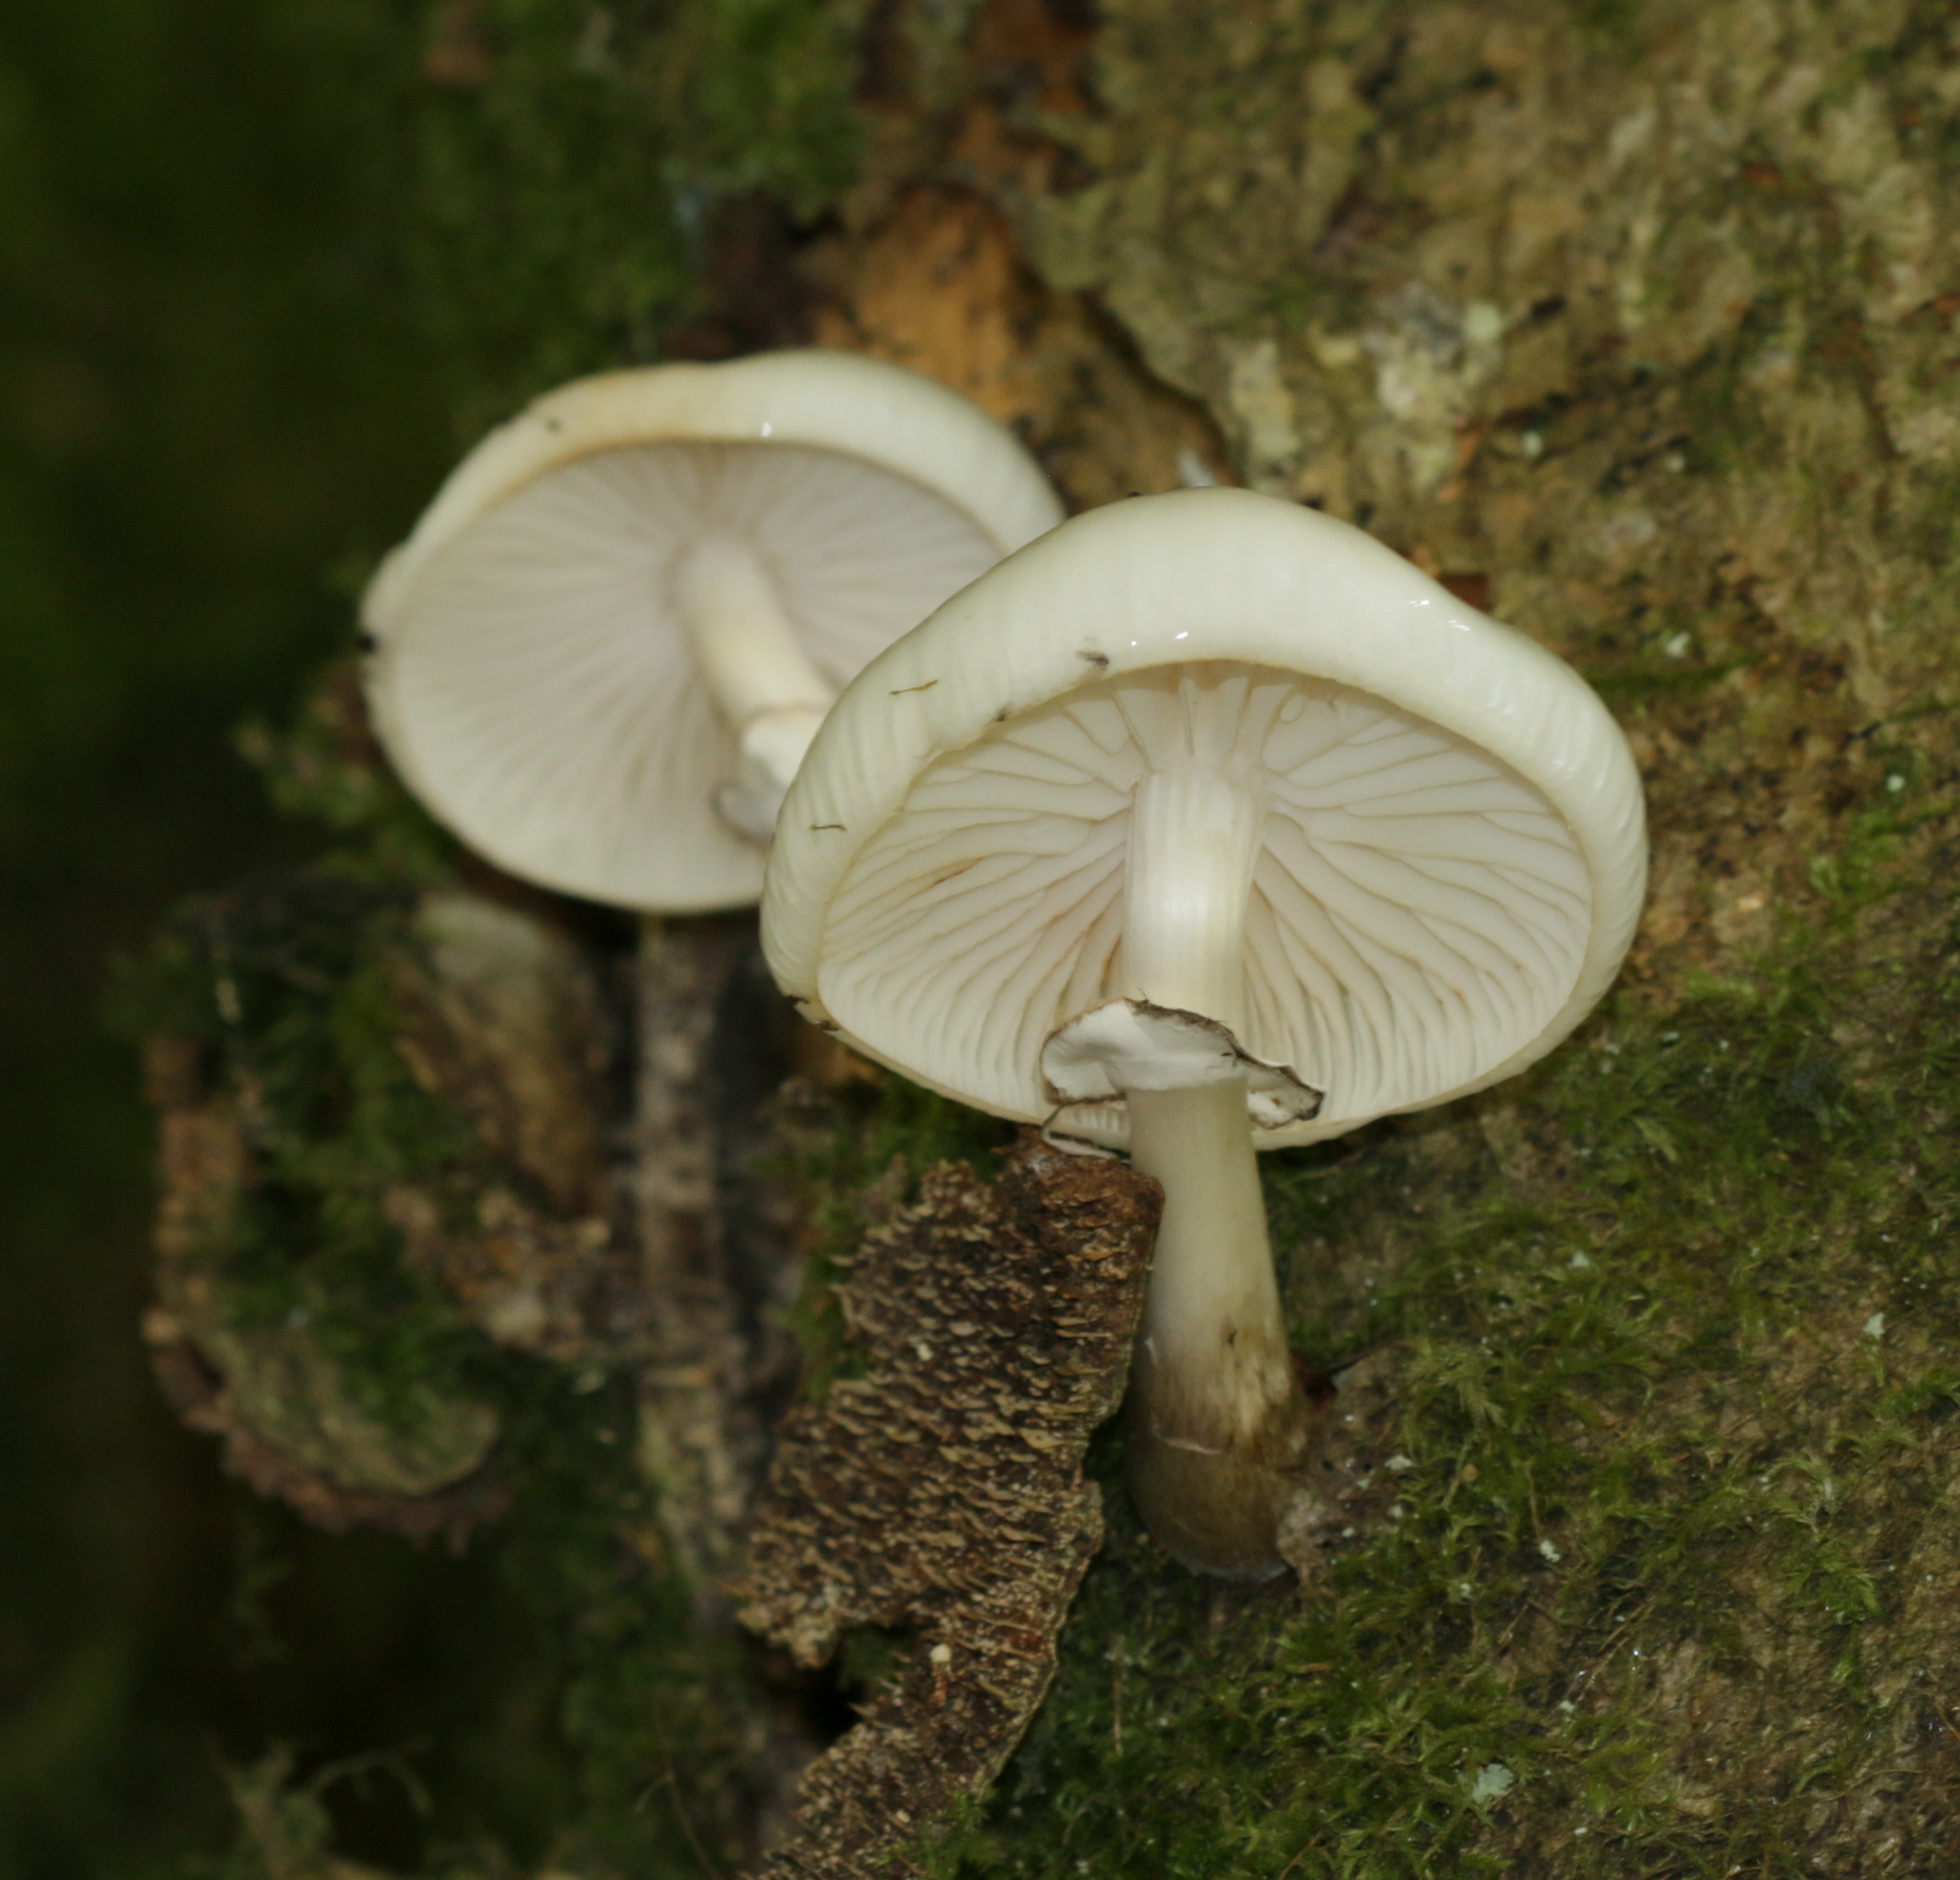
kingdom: Fungi
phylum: Basidiomycota
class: Agaricomycetes
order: Agaricales
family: Physalacriaceae
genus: Mucidula
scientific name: Mucidula mucida
